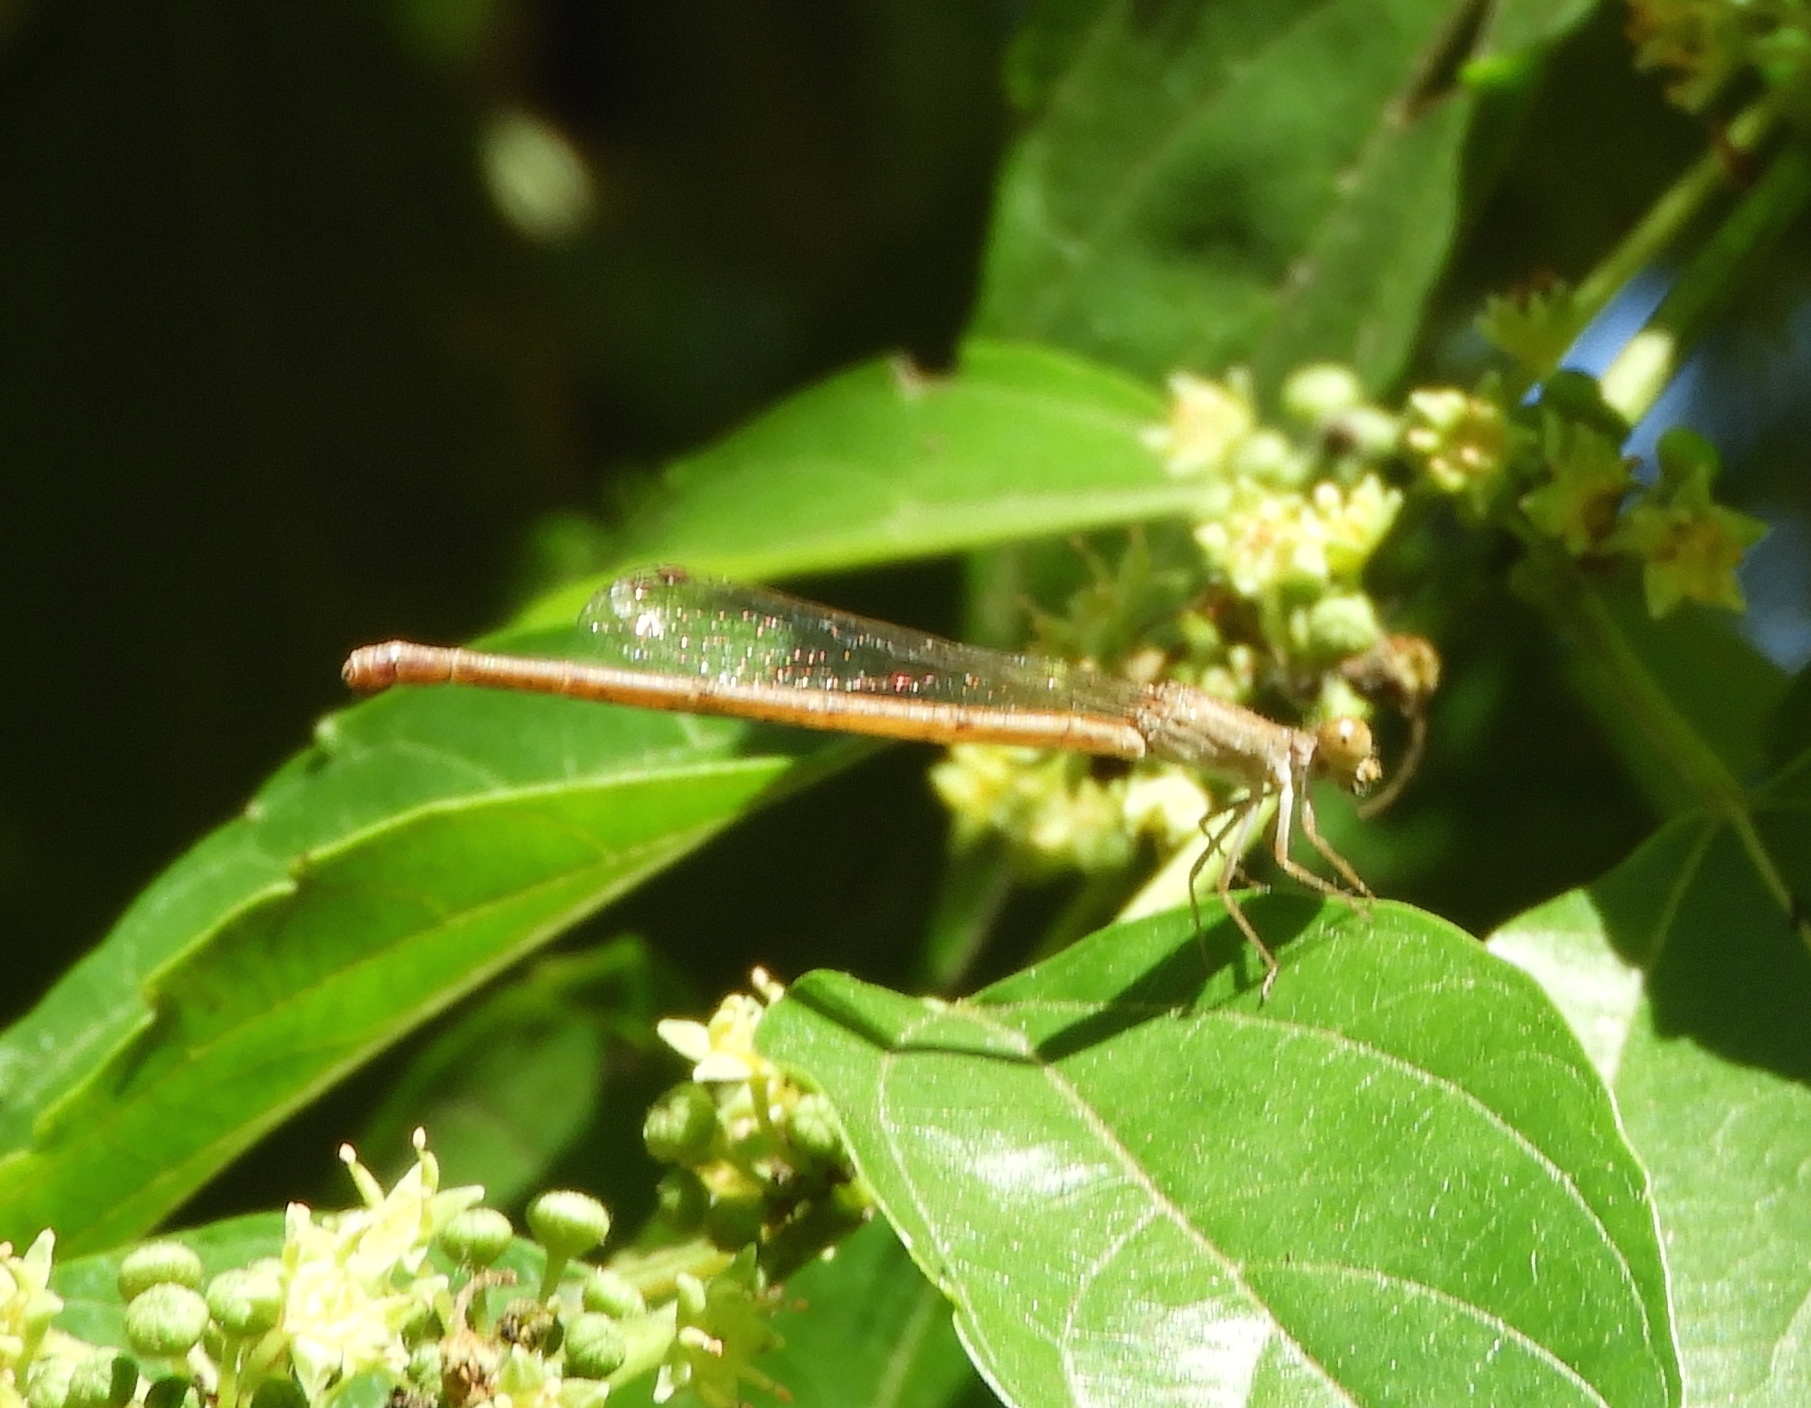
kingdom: Animalia
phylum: Arthropoda
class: Insecta
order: Odonata
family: Coenagrionidae
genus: Telebasis
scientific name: Telebasis salva
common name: Desert firetail
